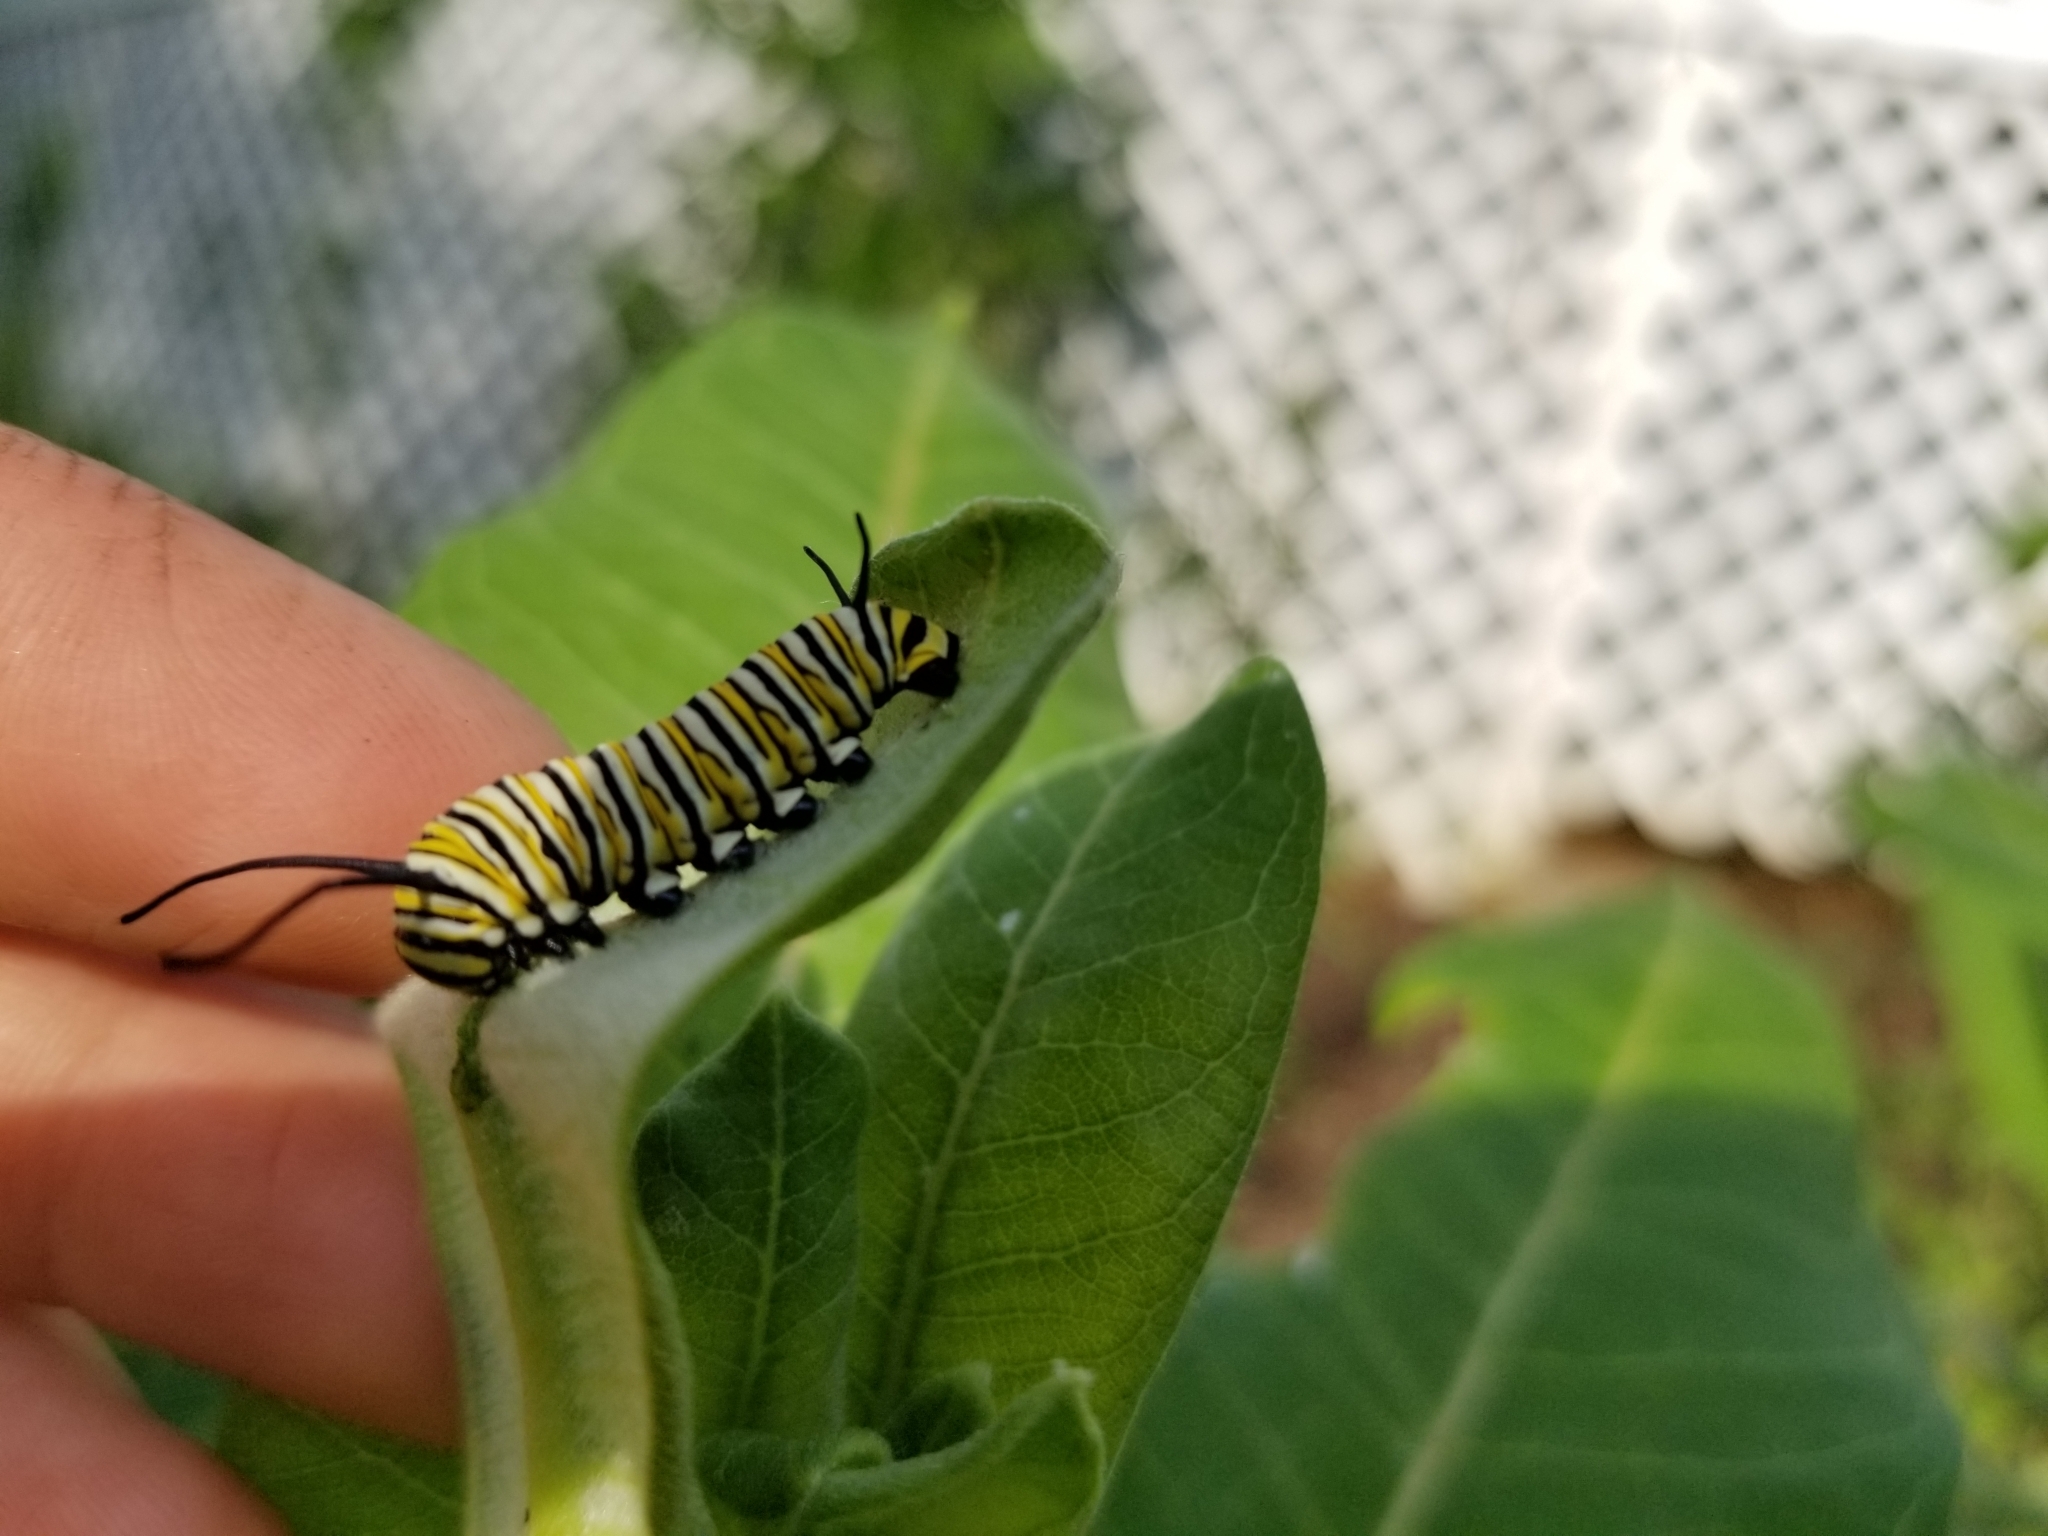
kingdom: Animalia
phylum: Arthropoda
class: Insecta
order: Lepidoptera
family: Nymphalidae
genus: Danaus
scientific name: Danaus plexippus
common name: Monarch
